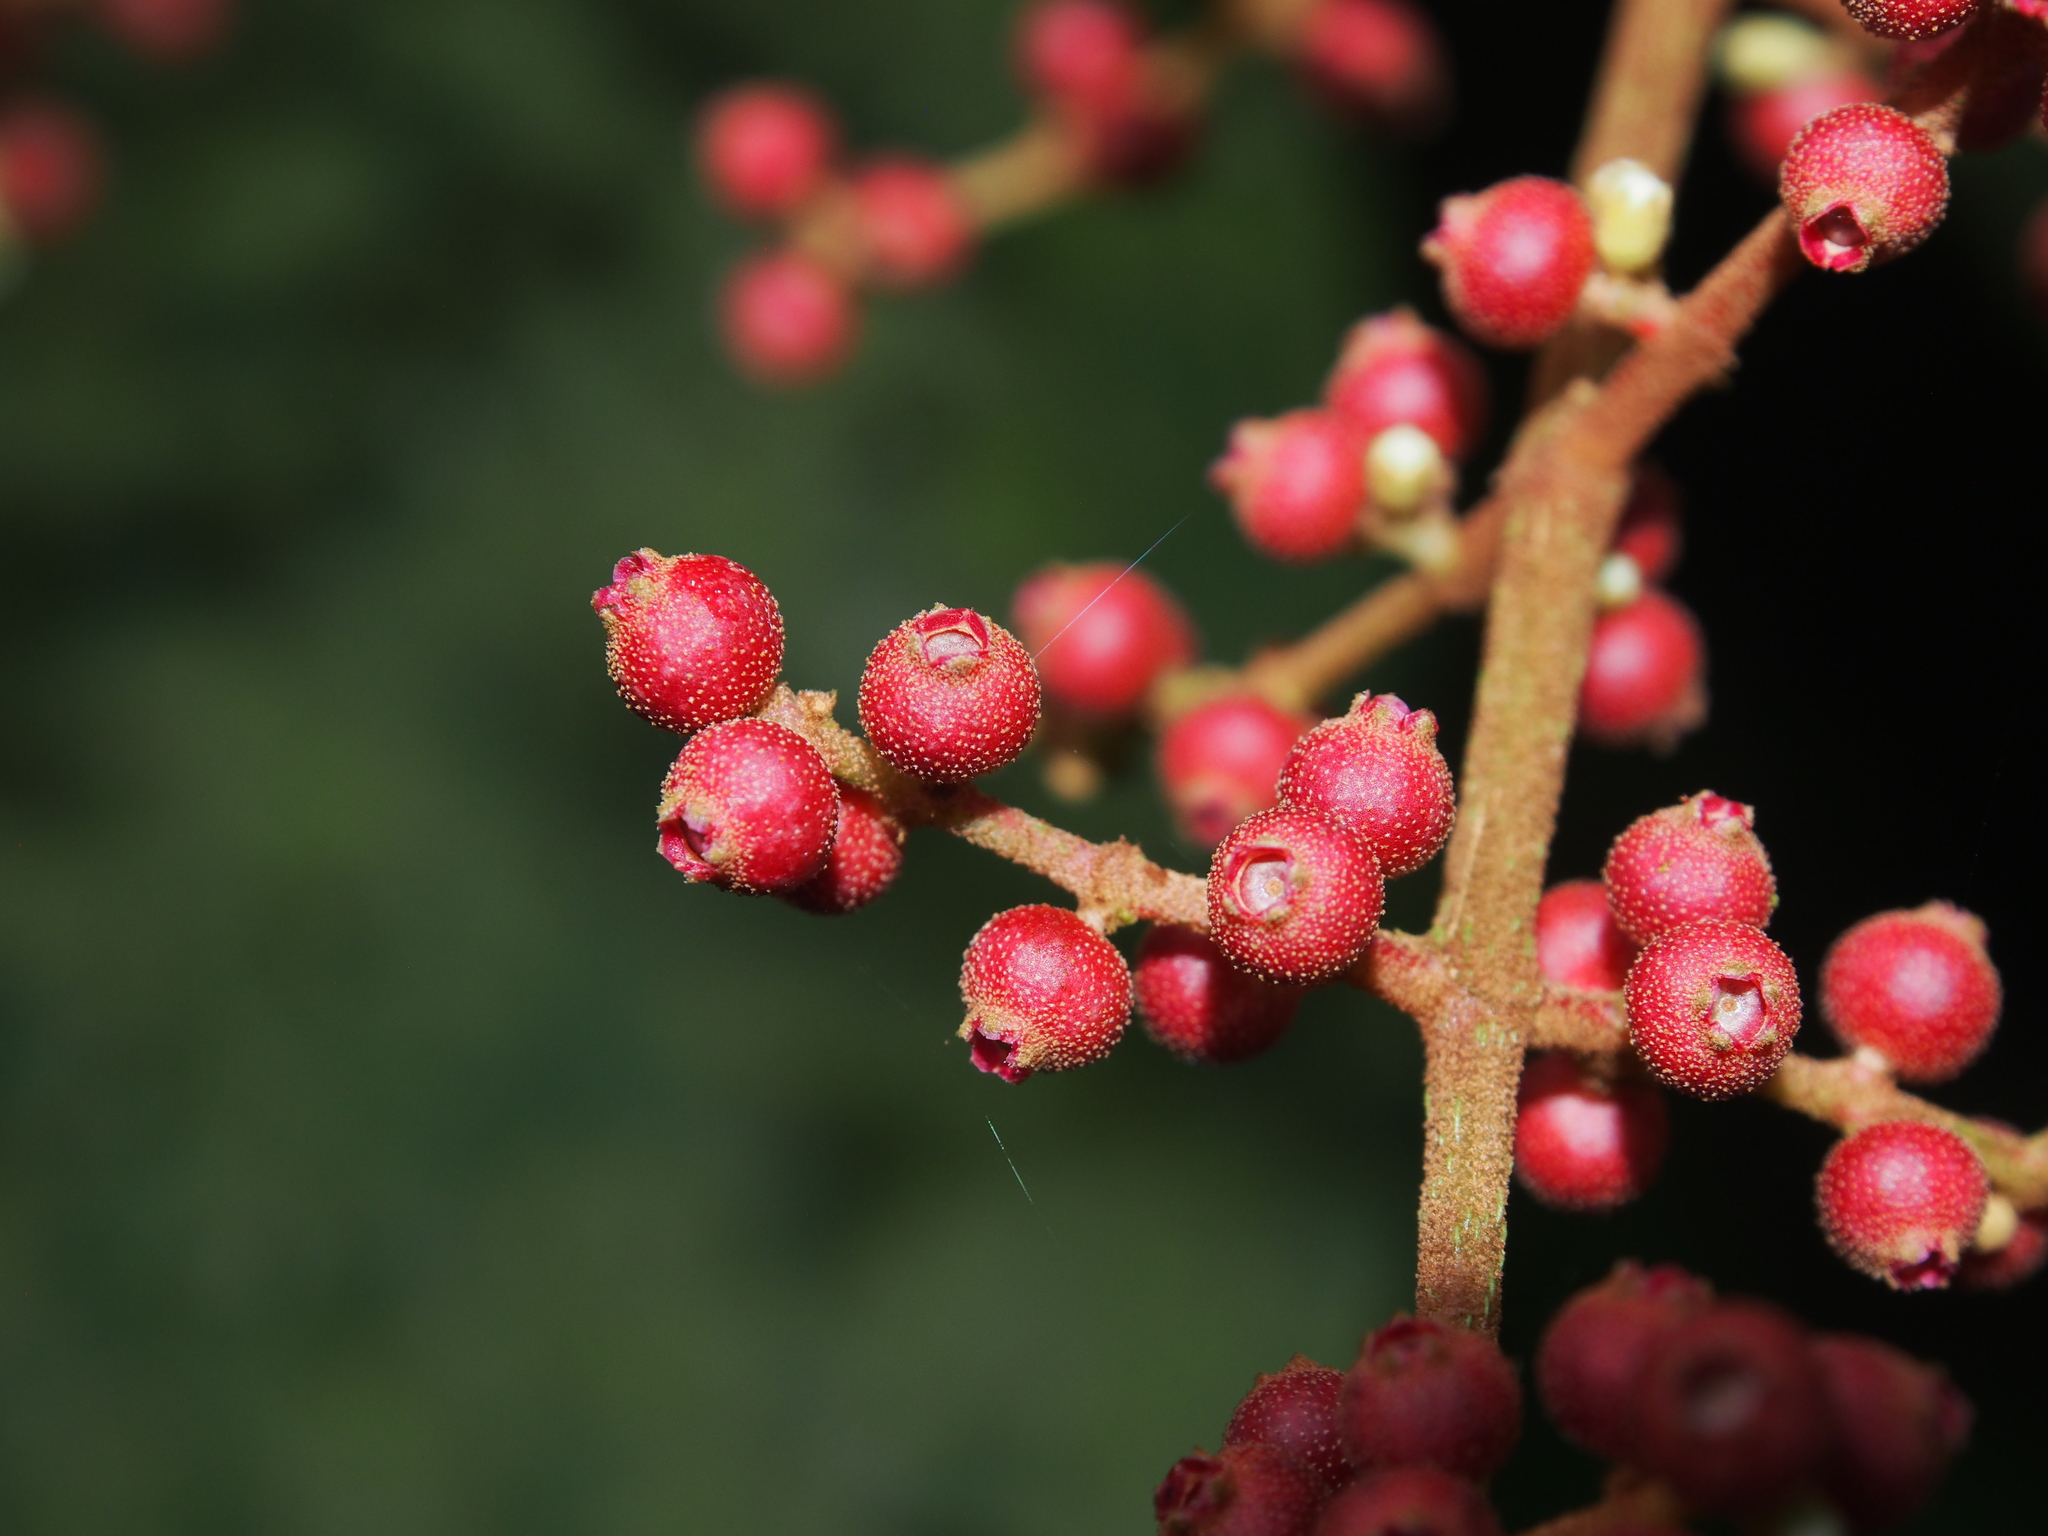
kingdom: Plantae
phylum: Tracheophyta
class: Magnoliopsida
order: Myrtales
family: Melastomataceae
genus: Miconia
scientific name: Miconia impetiolaris
